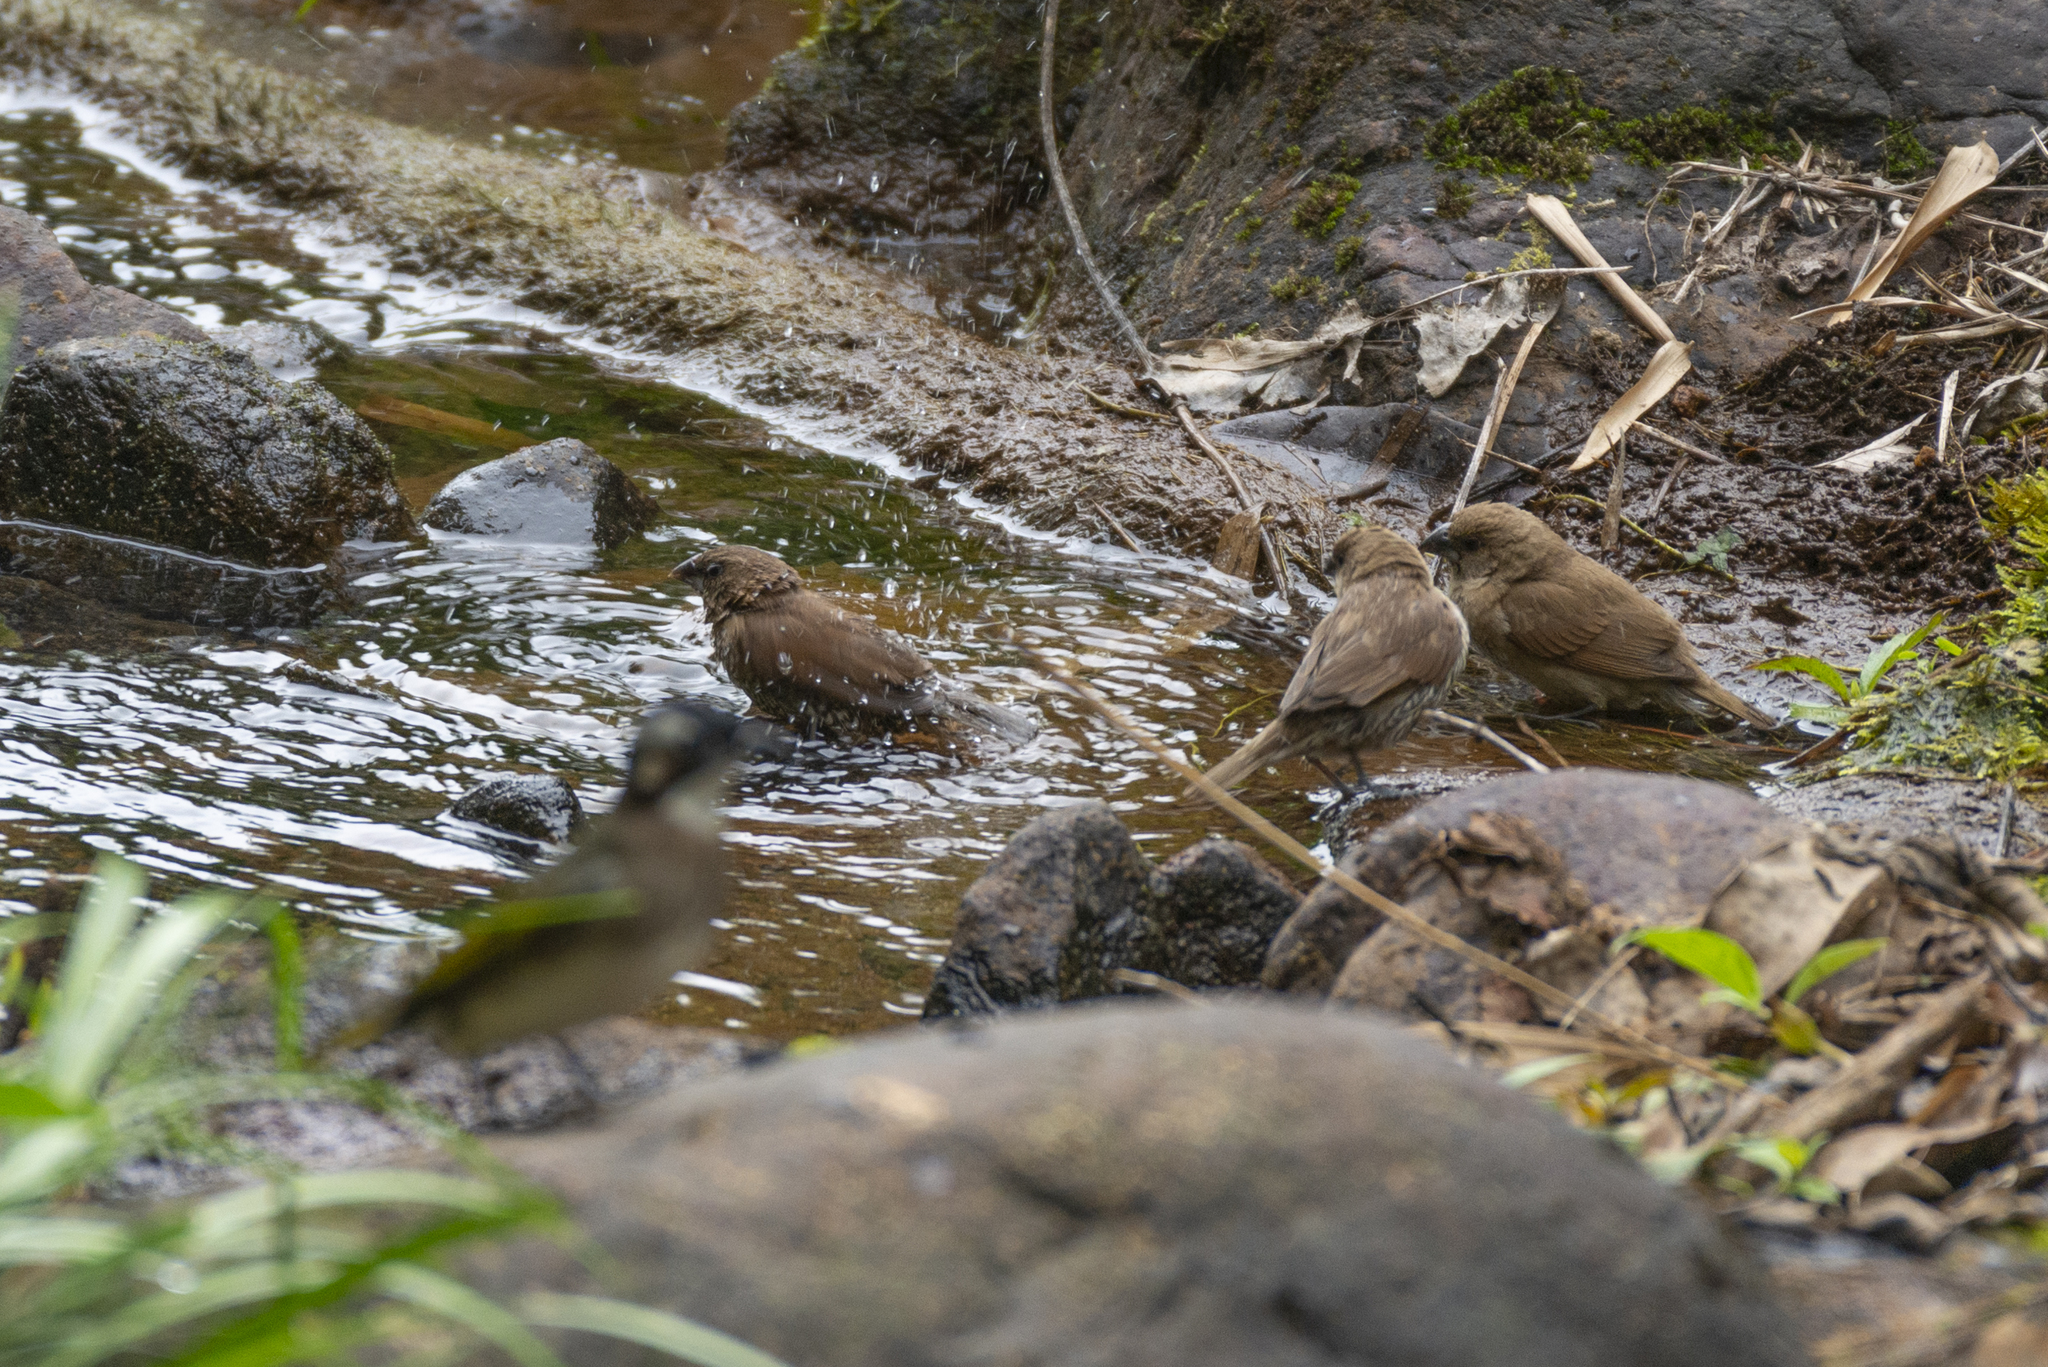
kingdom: Animalia
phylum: Chordata
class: Aves
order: Passeriformes
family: Estrildidae
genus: Lonchura
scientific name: Lonchura punctulata
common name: Scaly-breasted munia
